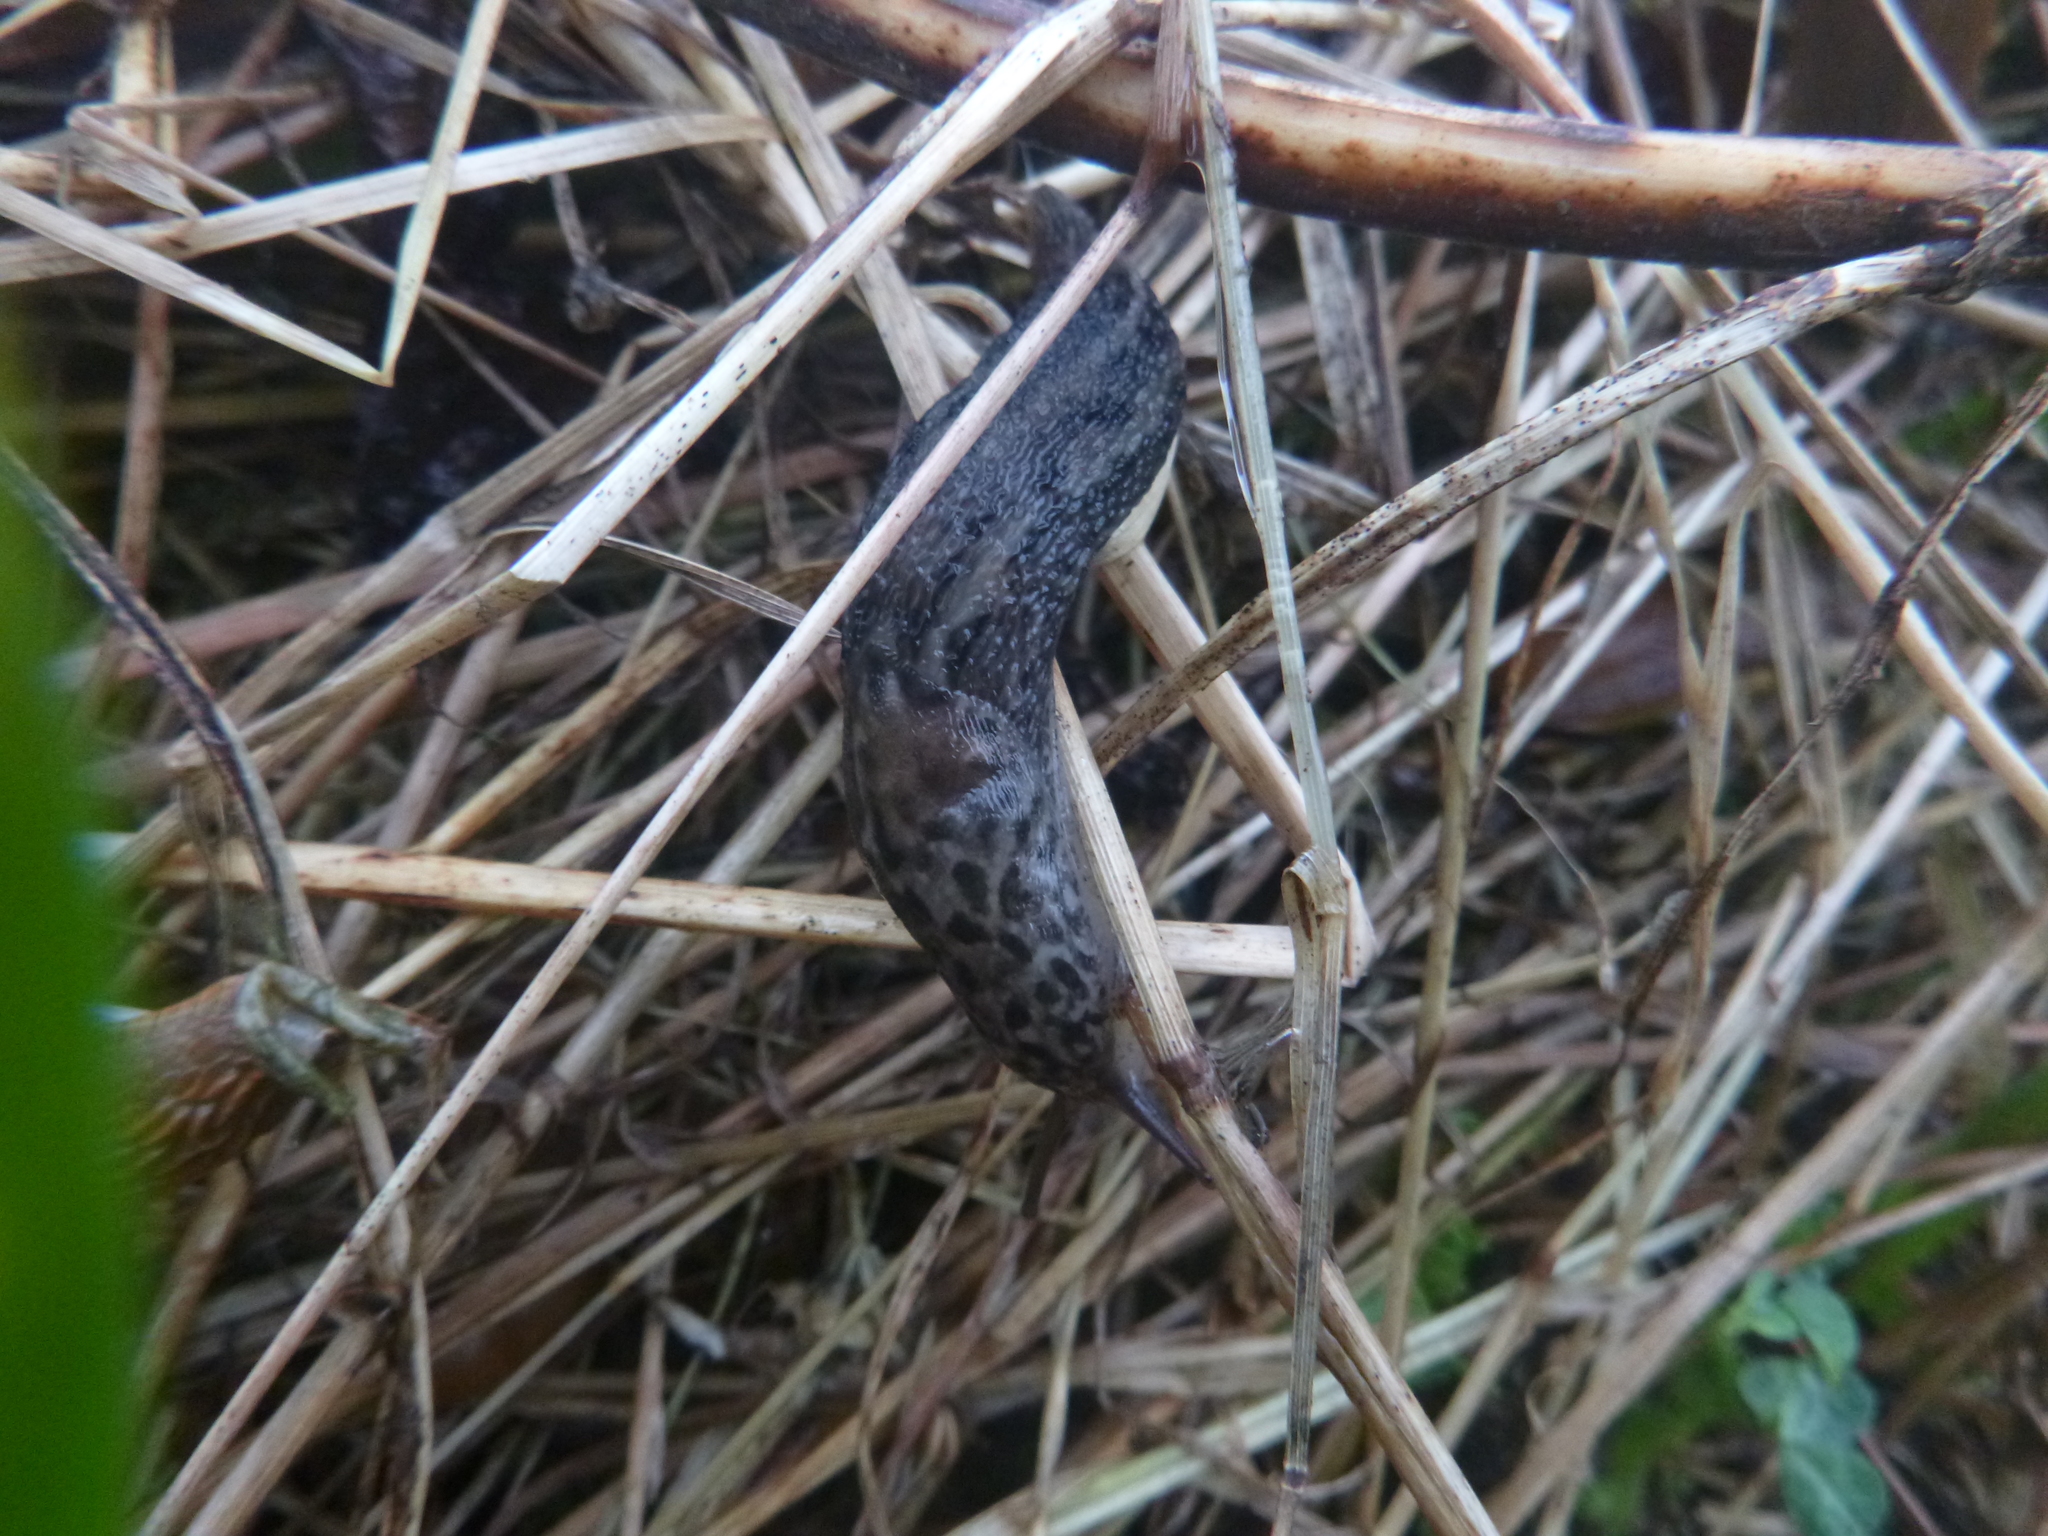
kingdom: Animalia
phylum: Mollusca
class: Gastropoda
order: Stylommatophora
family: Limacidae
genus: Limax
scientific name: Limax maximus
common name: Great grey slug
